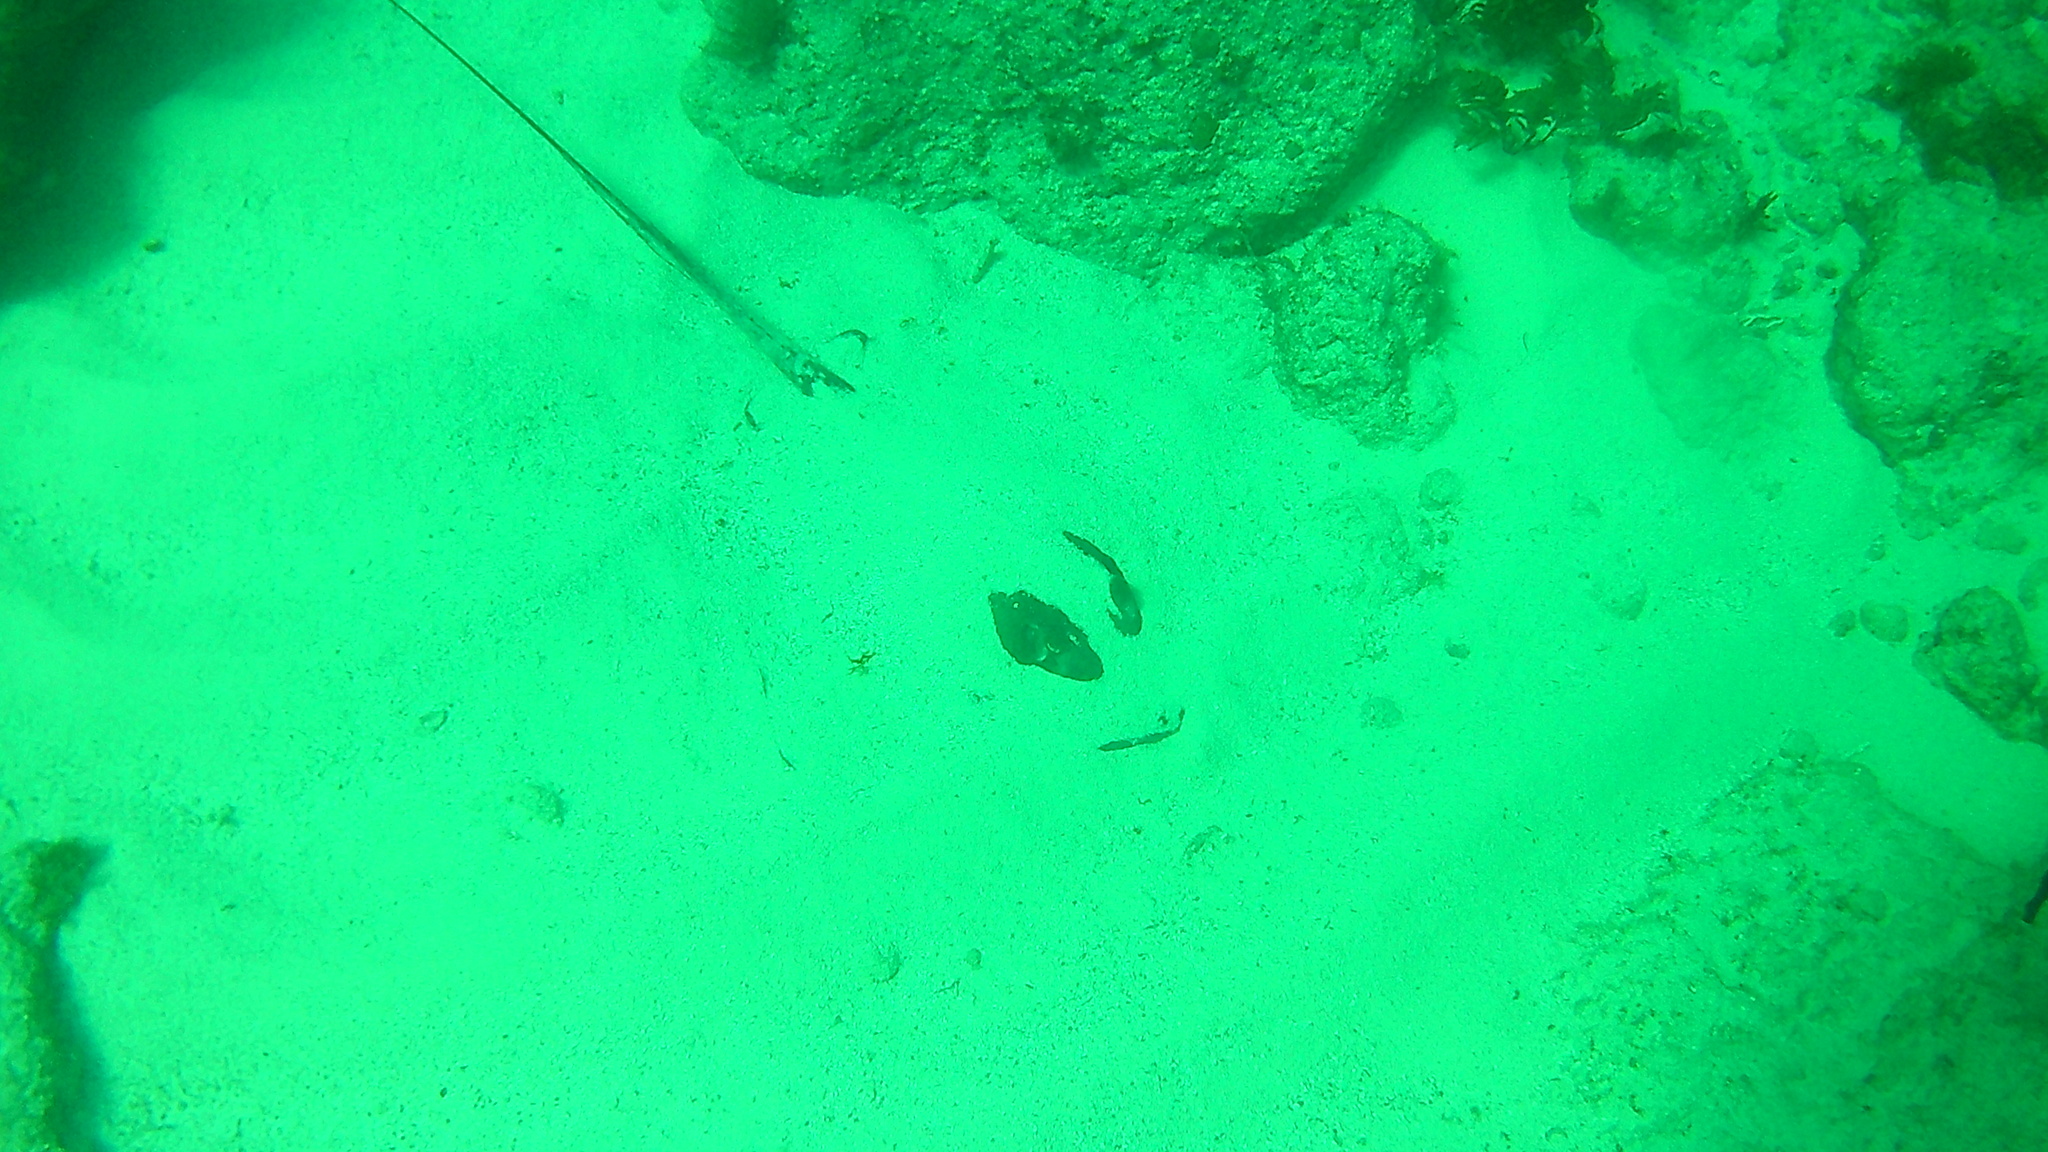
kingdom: Animalia
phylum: Chordata
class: Elasmobranchii
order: Myliobatiformes
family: Dasyatidae
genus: Hypanus
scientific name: Hypanus americanus
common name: Southern stingray
